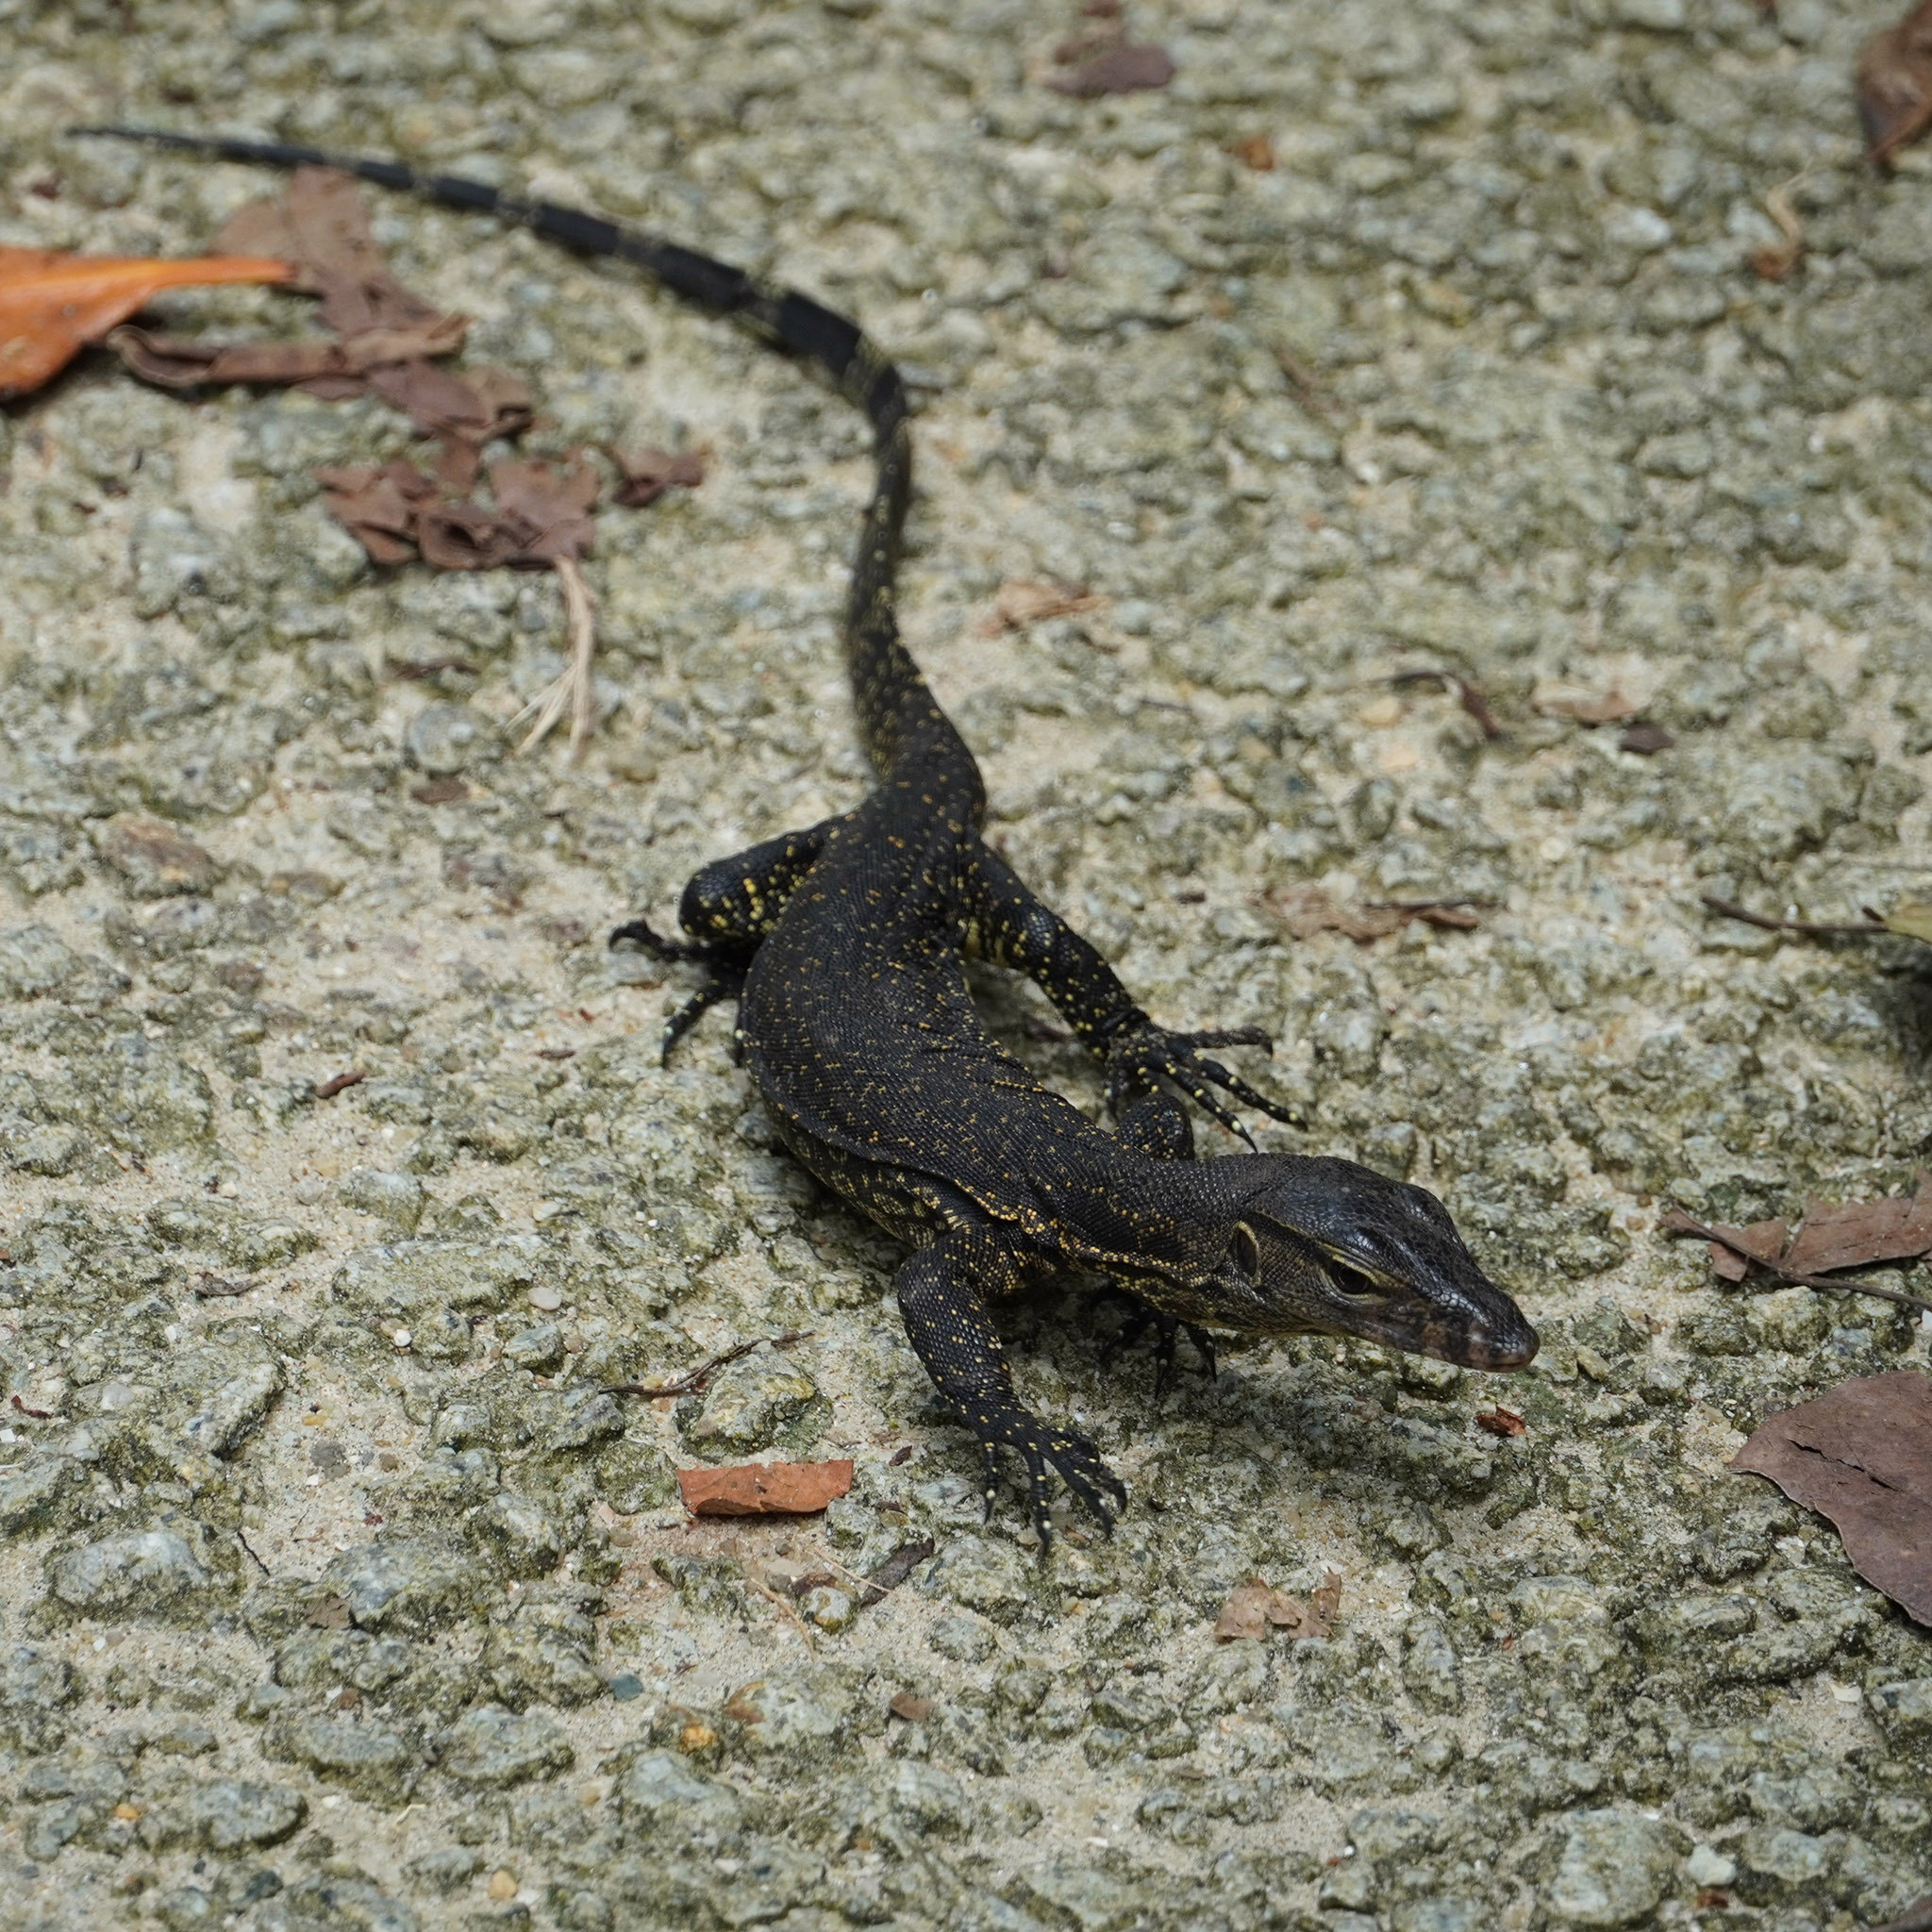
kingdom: Animalia
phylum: Chordata
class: Squamata
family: Varanidae
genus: Varanus
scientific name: Varanus salvator
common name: Common water monitor
